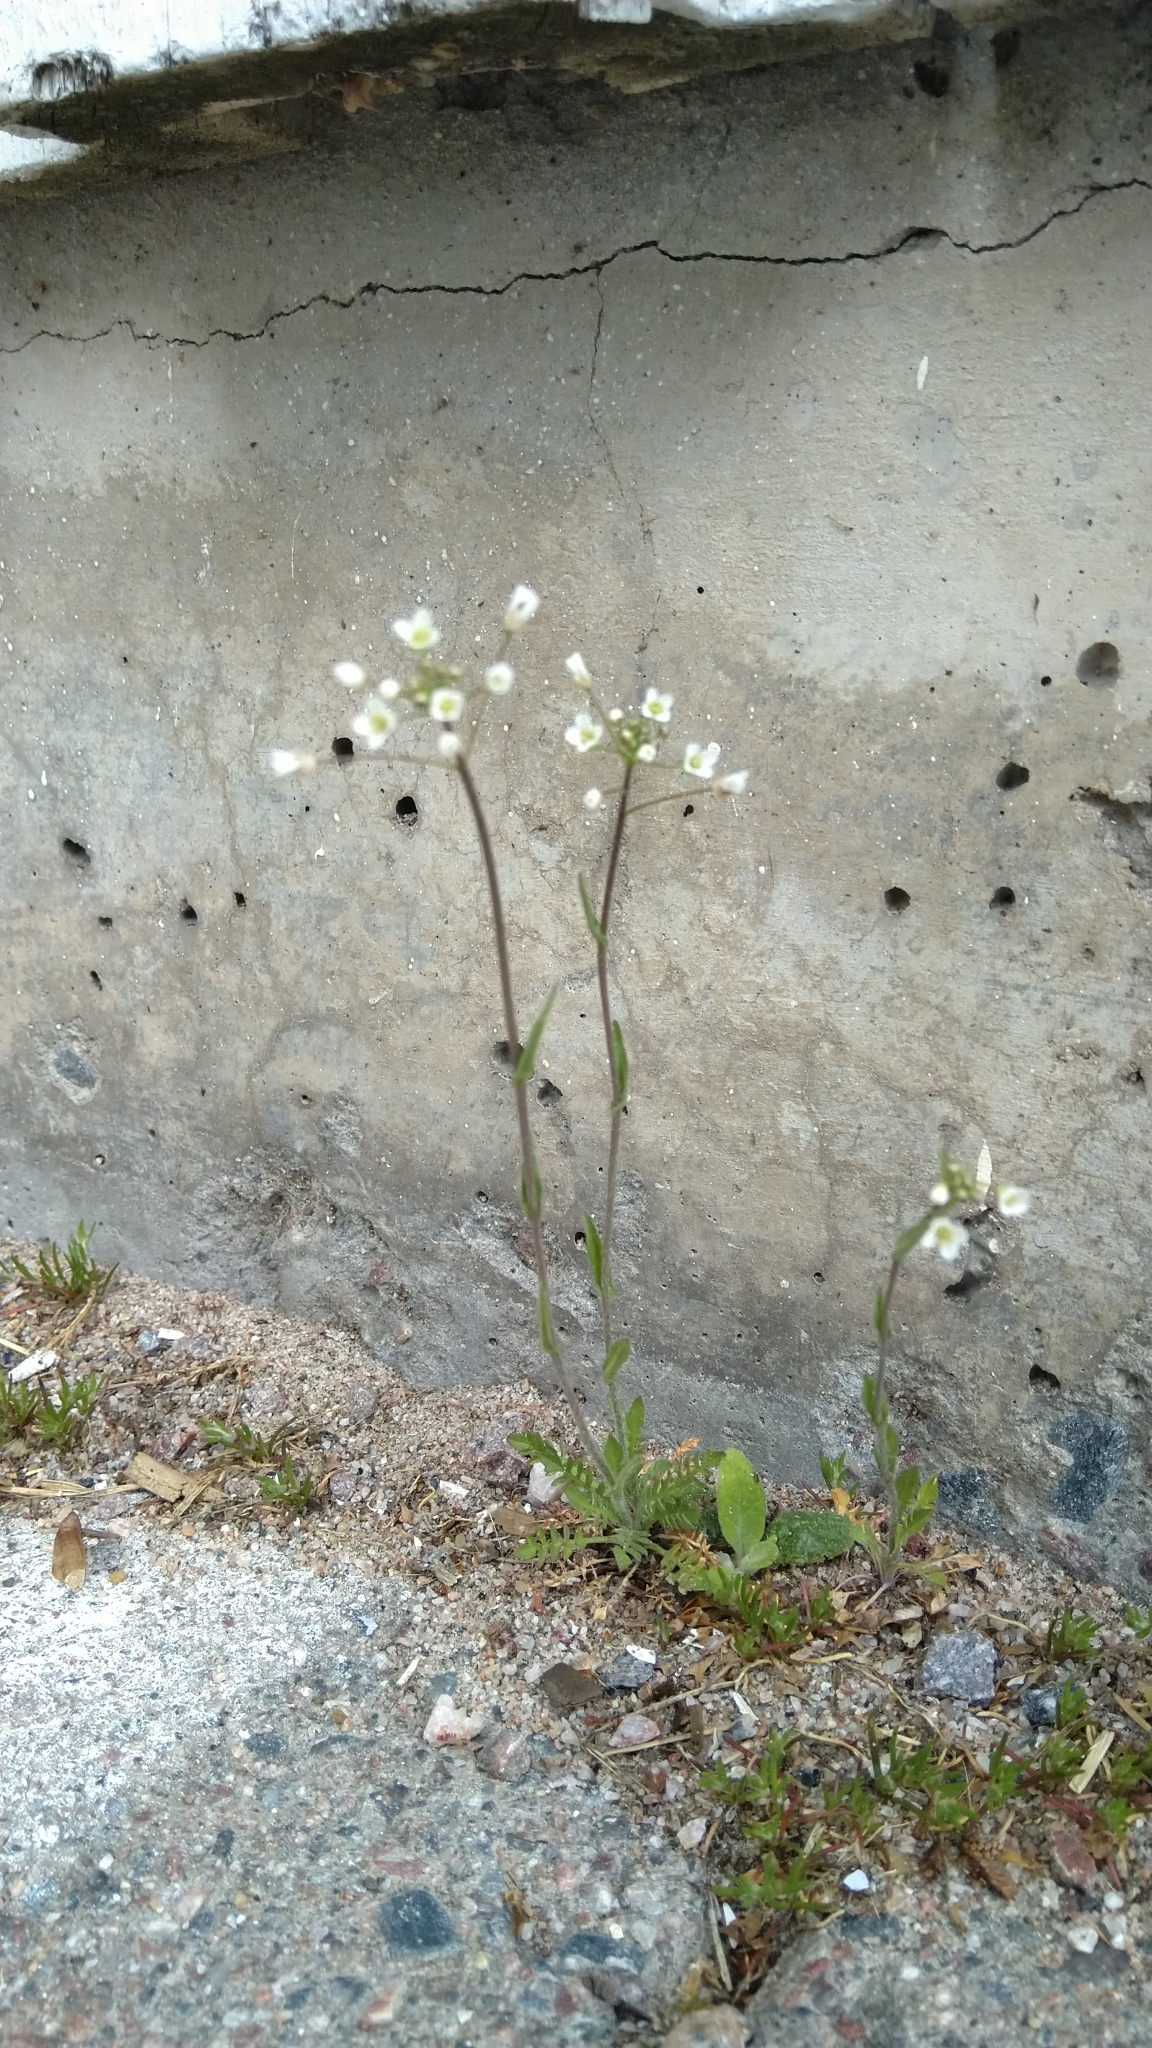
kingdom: Plantae
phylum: Tracheophyta
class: Magnoliopsida
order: Brassicales
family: Brassicaceae
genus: Capsella
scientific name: Capsella bursa-pastoris
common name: Shepherd's purse
